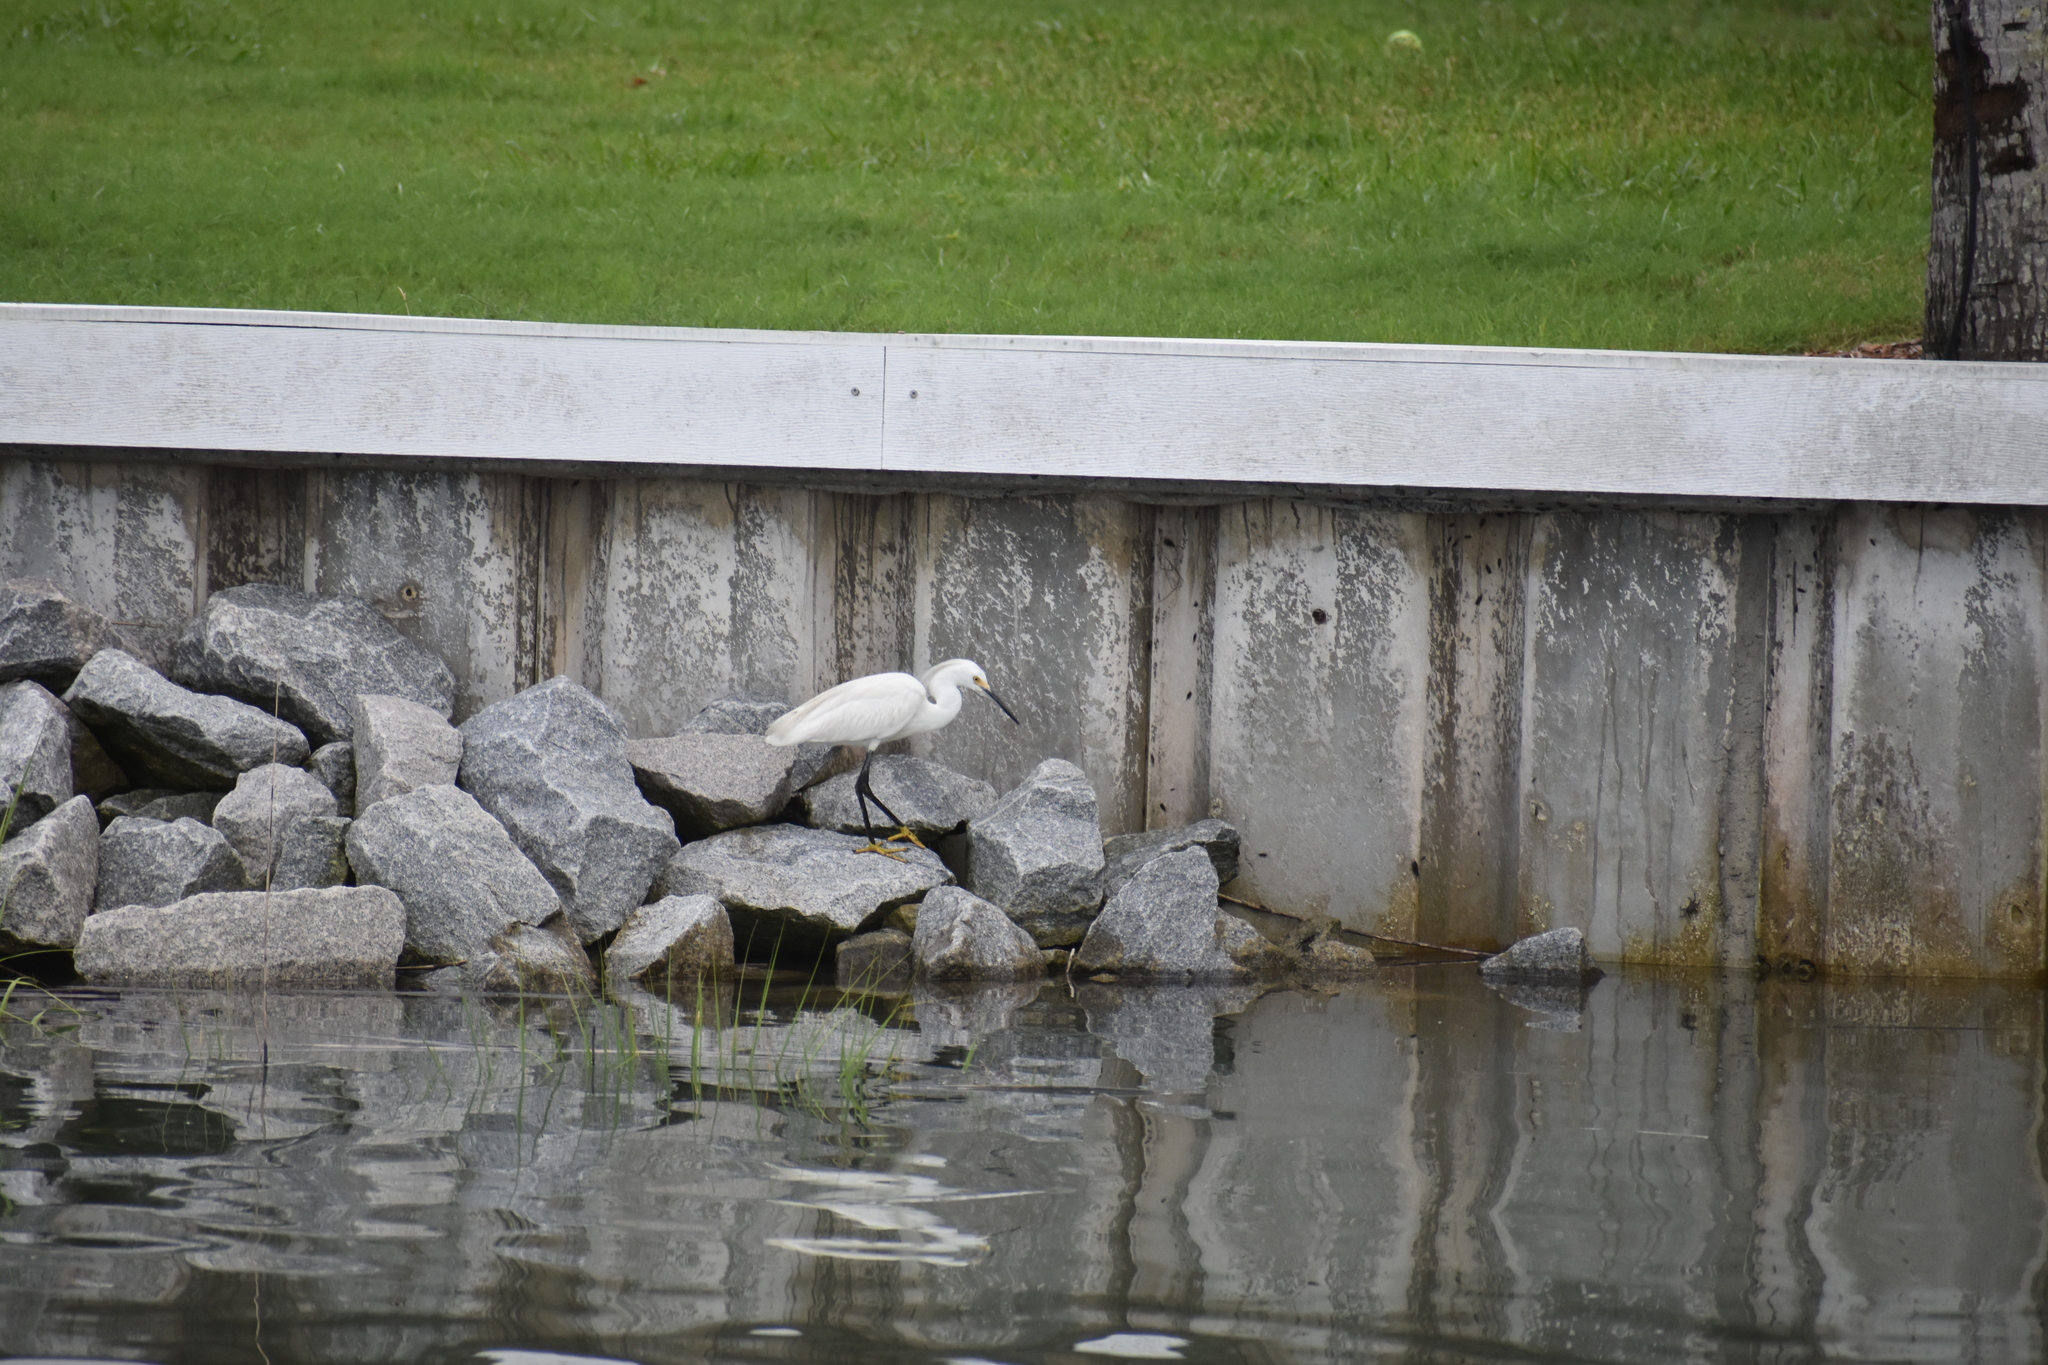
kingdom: Animalia
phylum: Chordata
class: Aves
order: Pelecaniformes
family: Ardeidae
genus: Egretta
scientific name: Egretta thula
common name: Snowy egret
